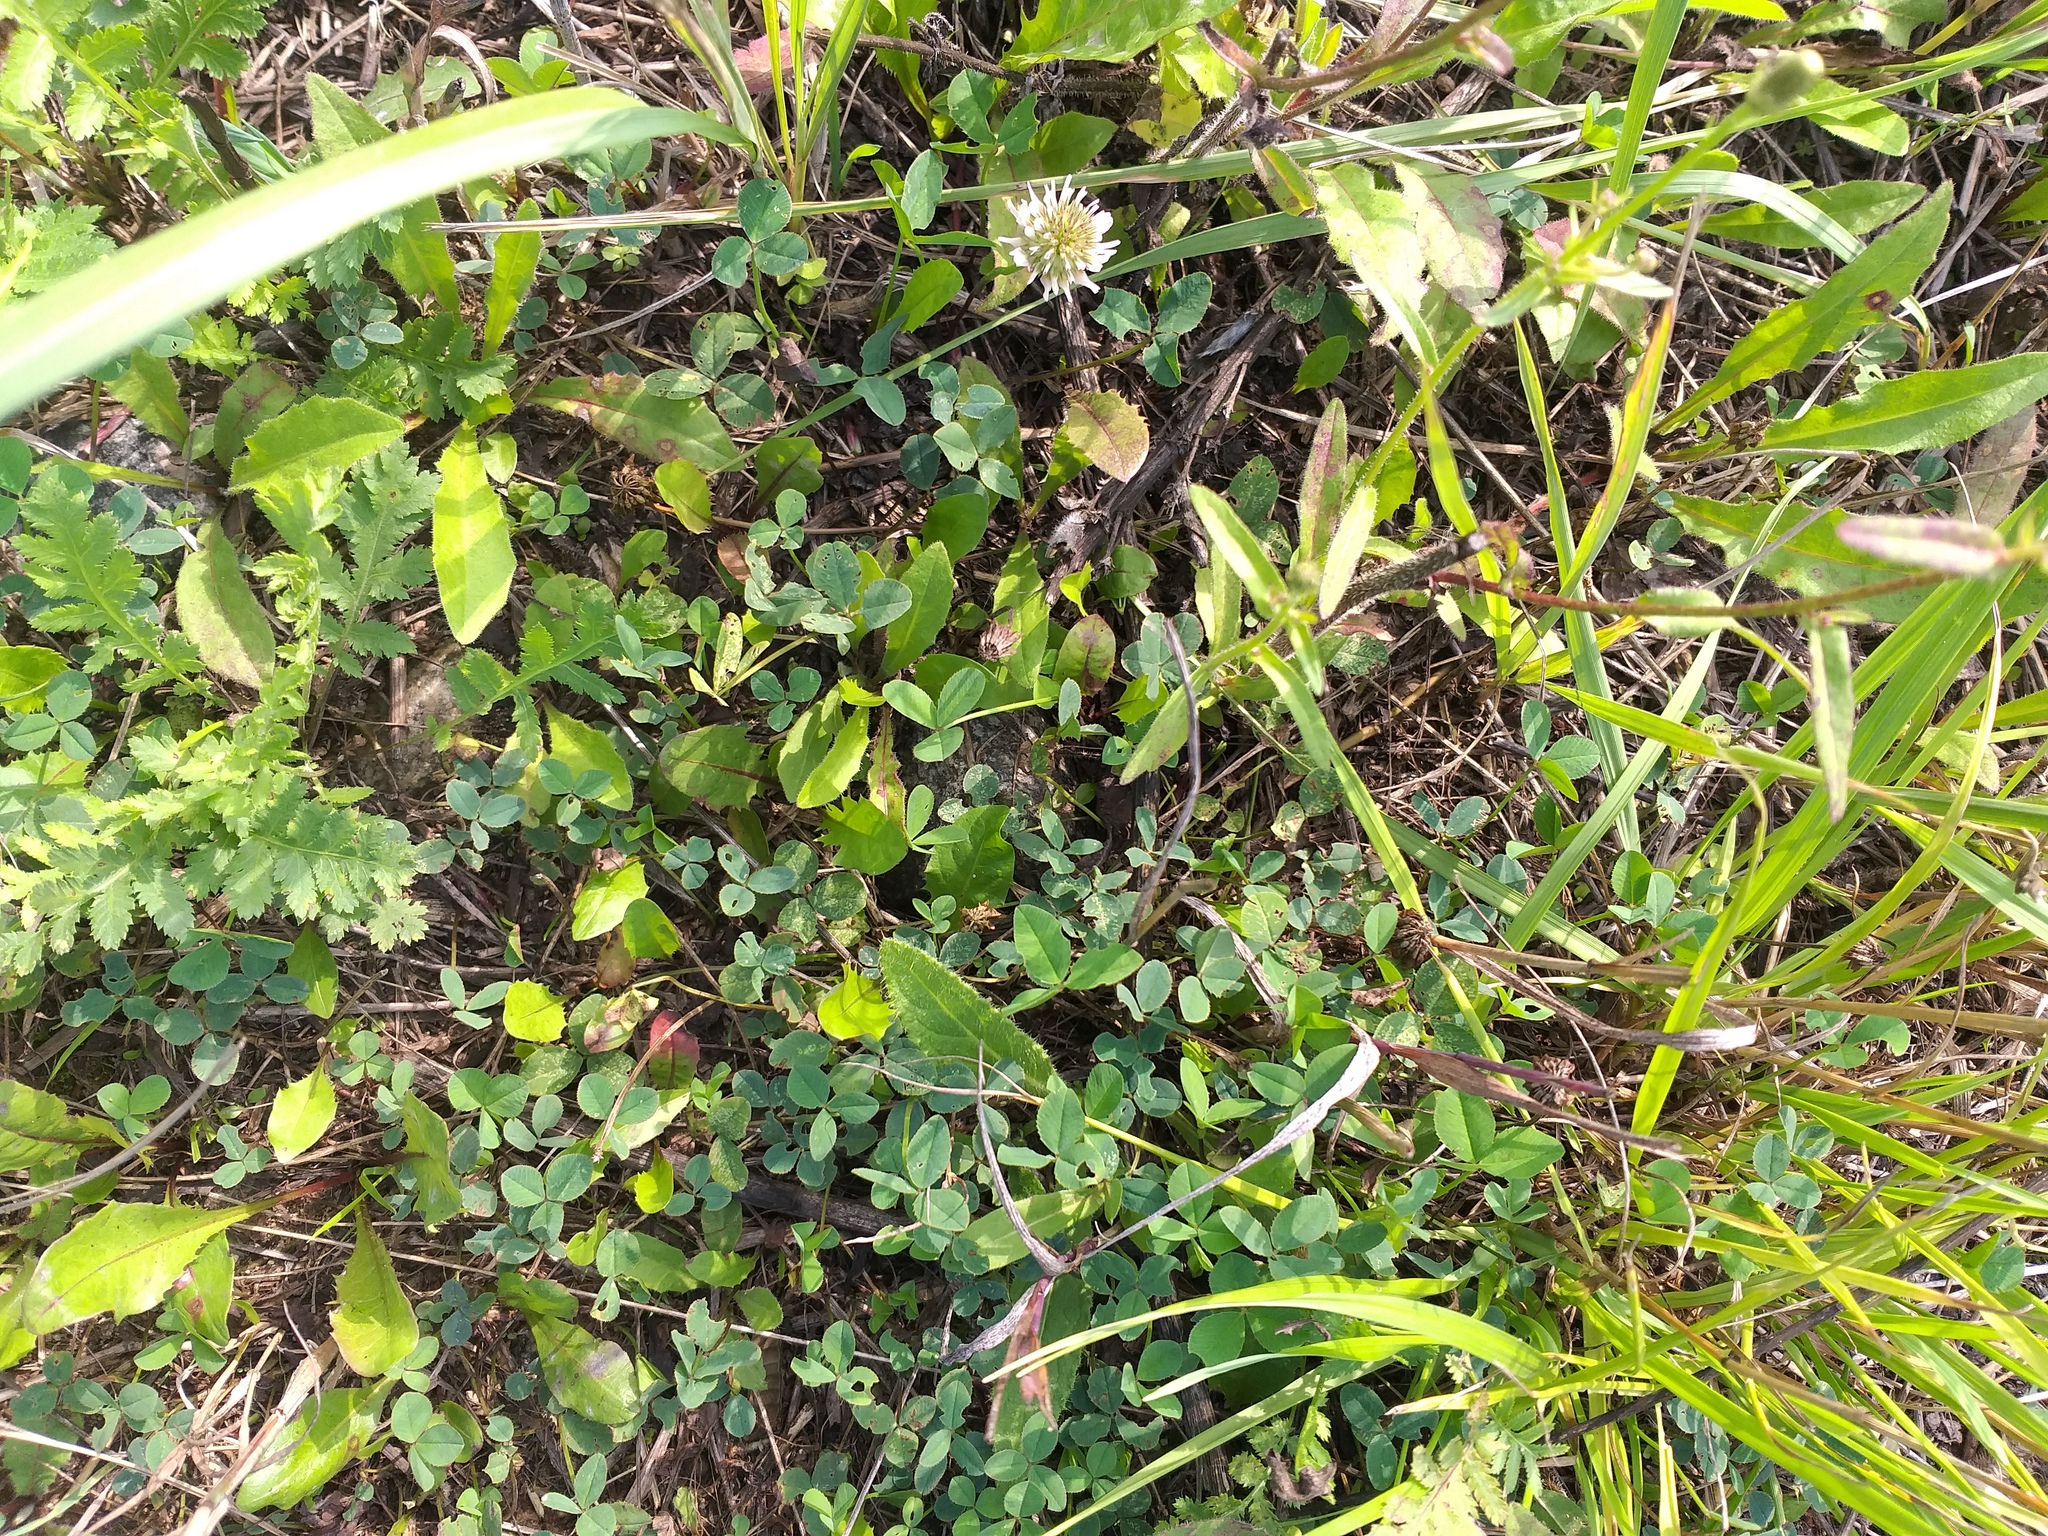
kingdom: Plantae
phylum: Tracheophyta
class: Magnoliopsida
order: Fabales
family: Fabaceae
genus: Trifolium
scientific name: Trifolium repens
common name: White clover
